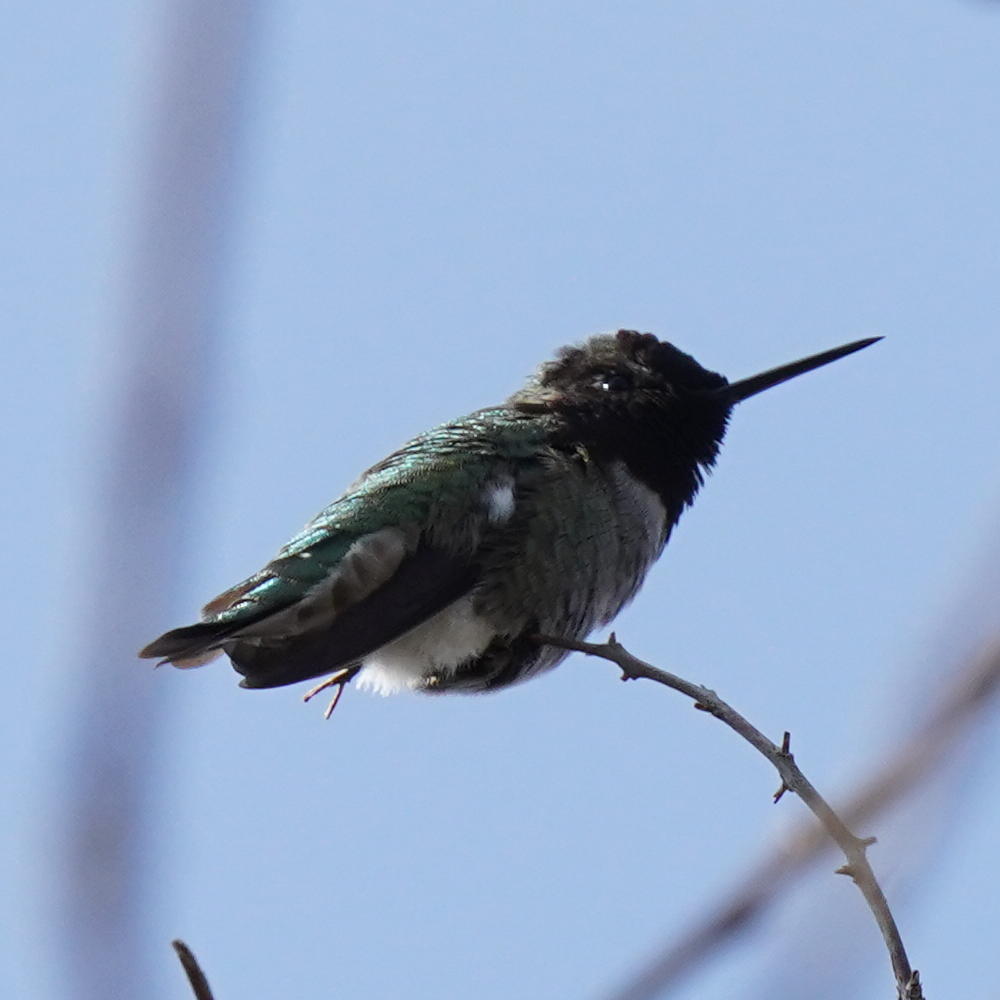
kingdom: Animalia
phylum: Chordata
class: Aves
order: Apodiformes
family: Trochilidae
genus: Calypte
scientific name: Calypte anna
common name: Anna's hummingbird
